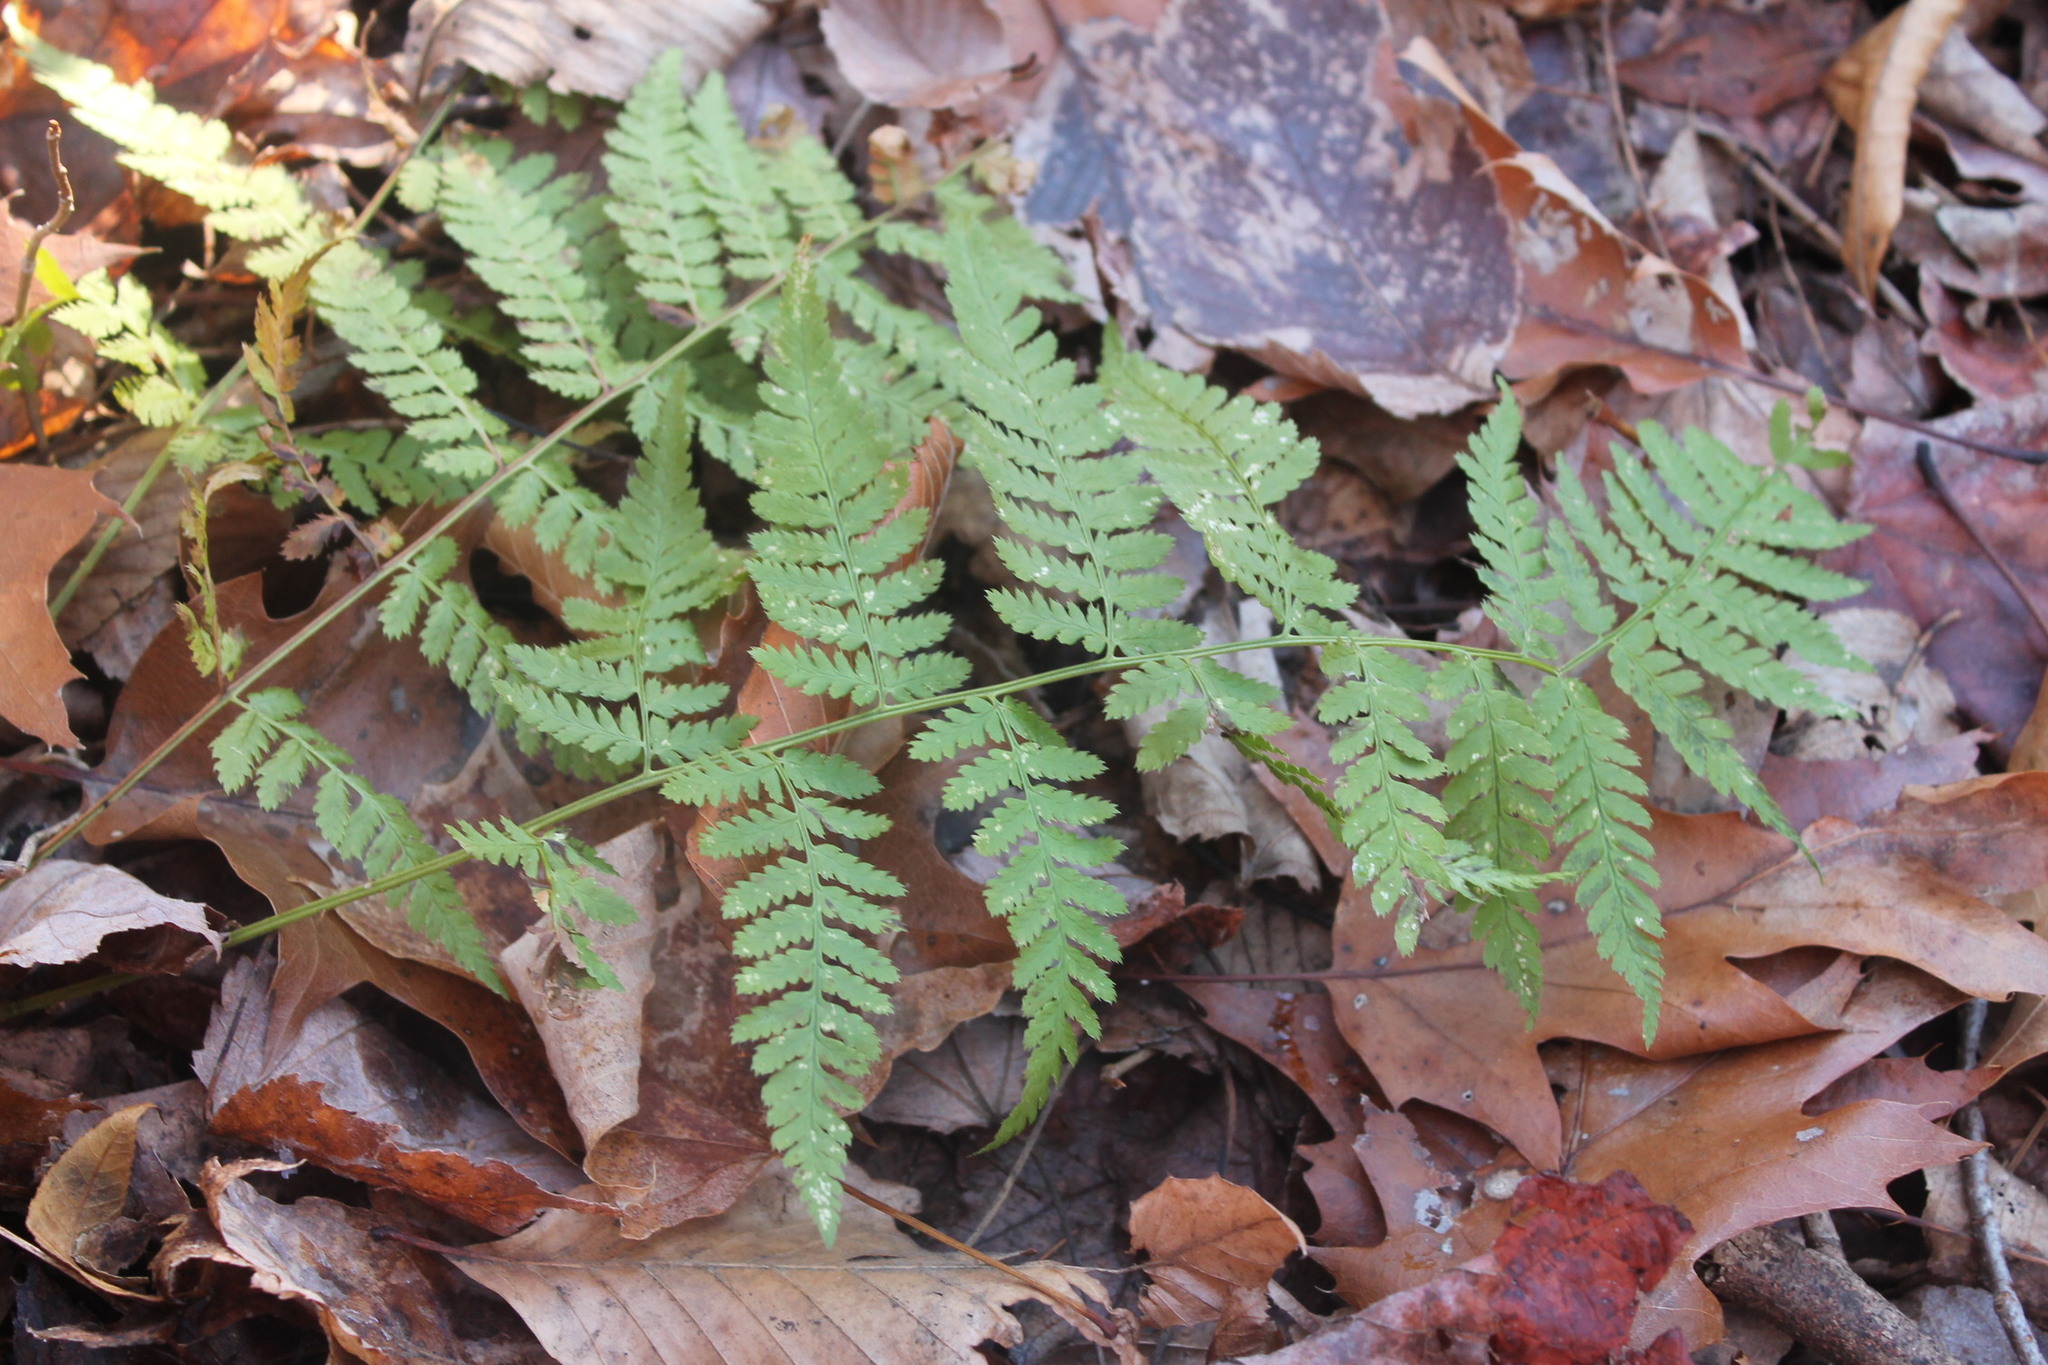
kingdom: Plantae
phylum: Tracheophyta
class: Polypodiopsida
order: Polypodiales
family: Dryopteridaceae
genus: Dryopteris
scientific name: Dryopteris intermedia
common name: Evergreen wood fern
